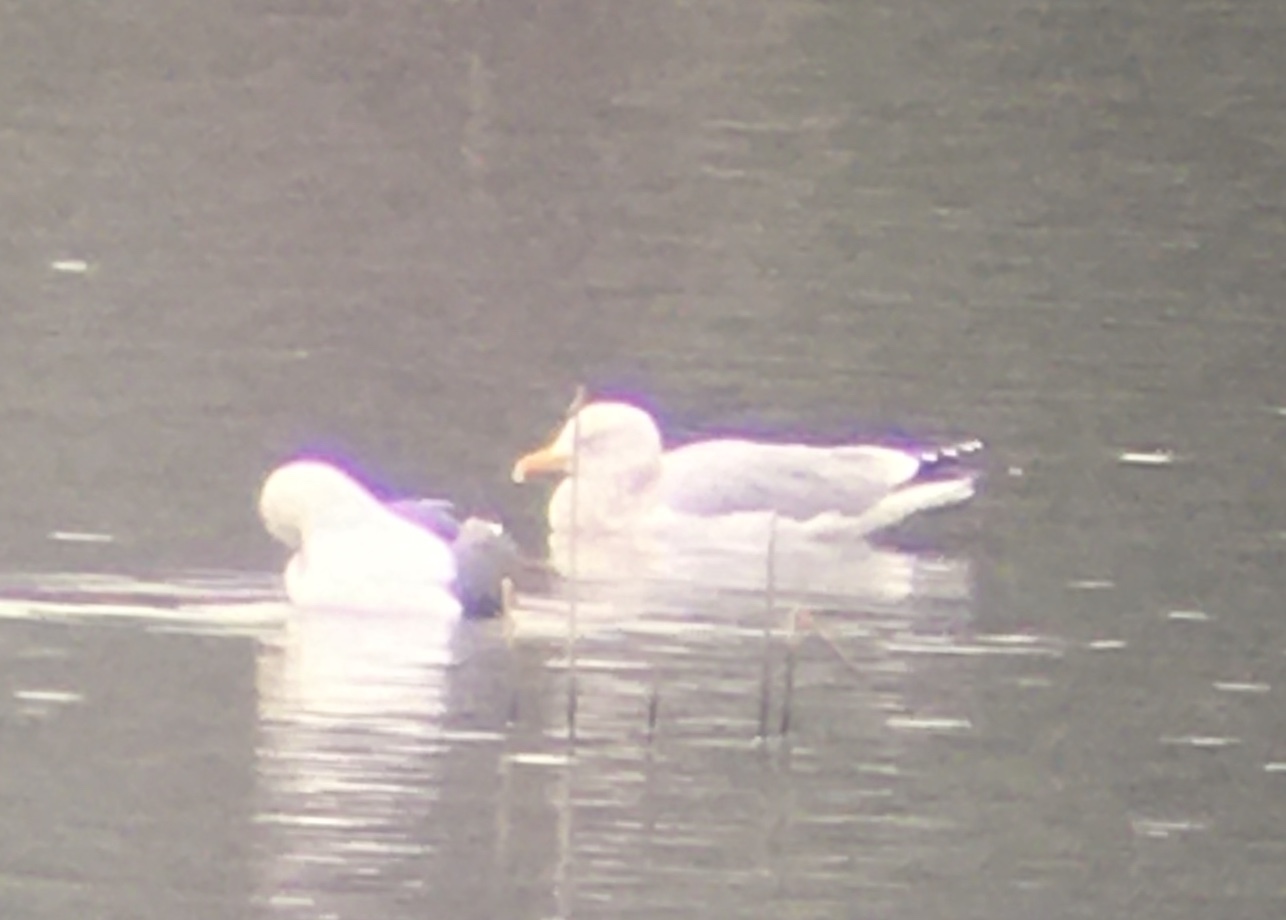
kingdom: Animalia
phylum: Chordata
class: Aves
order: Charadriiformes
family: Laridae
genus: Larus
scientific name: Larus argentatus
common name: Herring gull
